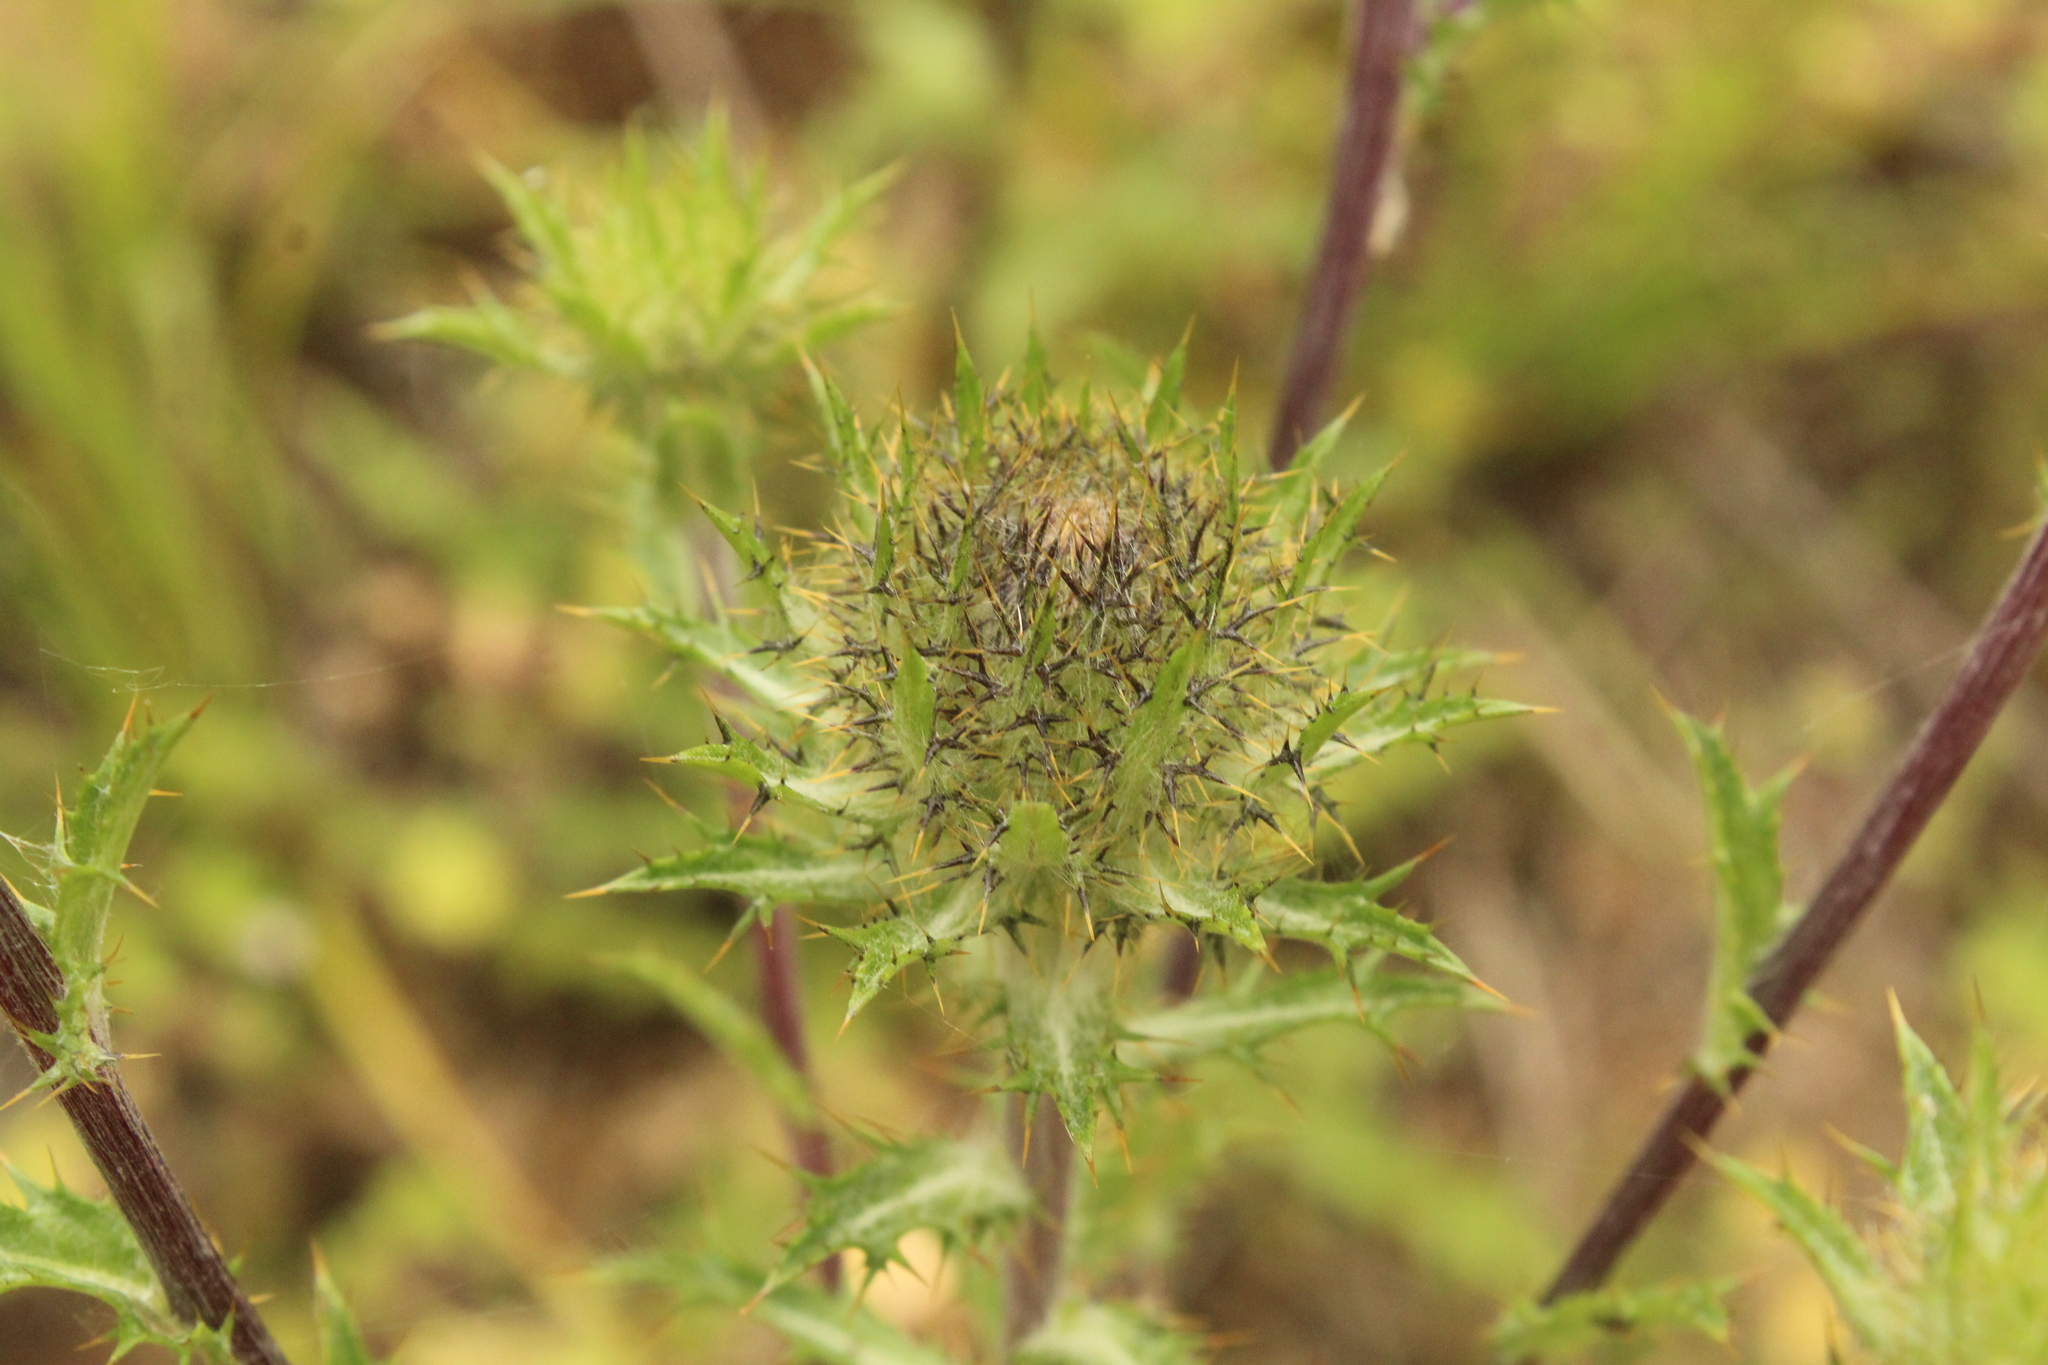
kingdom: Plantae
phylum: Tracheophyta
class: Magnoliopsida
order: Asterales
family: Asteraceae
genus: Carlina
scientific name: Carlina vulgaris
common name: Carline thistle
